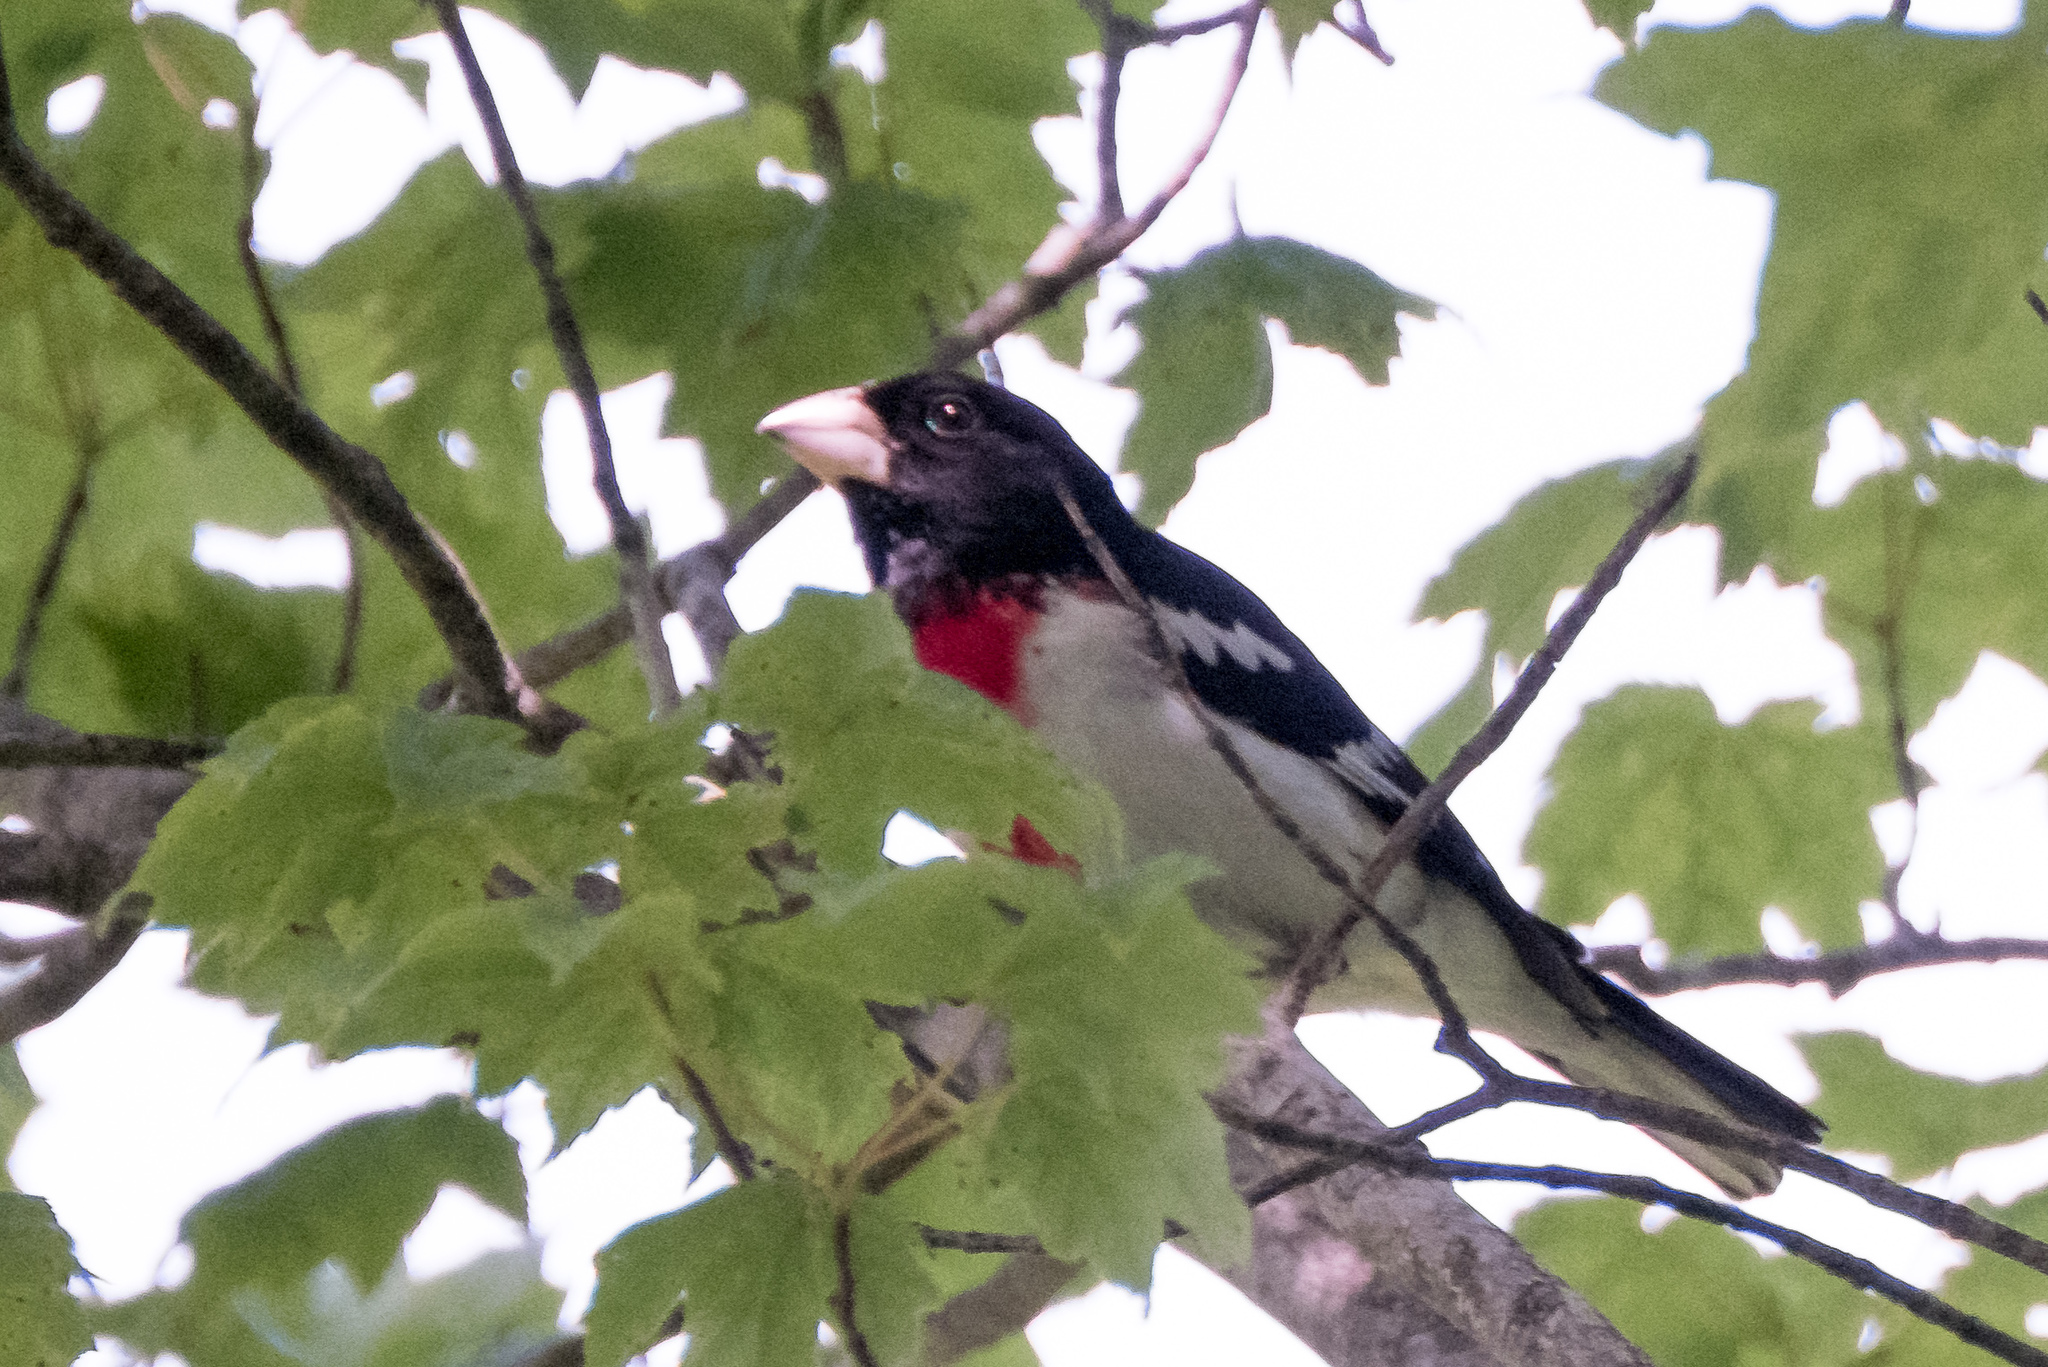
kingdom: Animalia
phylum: Chordata
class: Aves
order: Passeriformes
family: Cardinalidae
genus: Pheucticus
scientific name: Pheucticus ludovicianus
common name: Rose-breasted grosbeak
